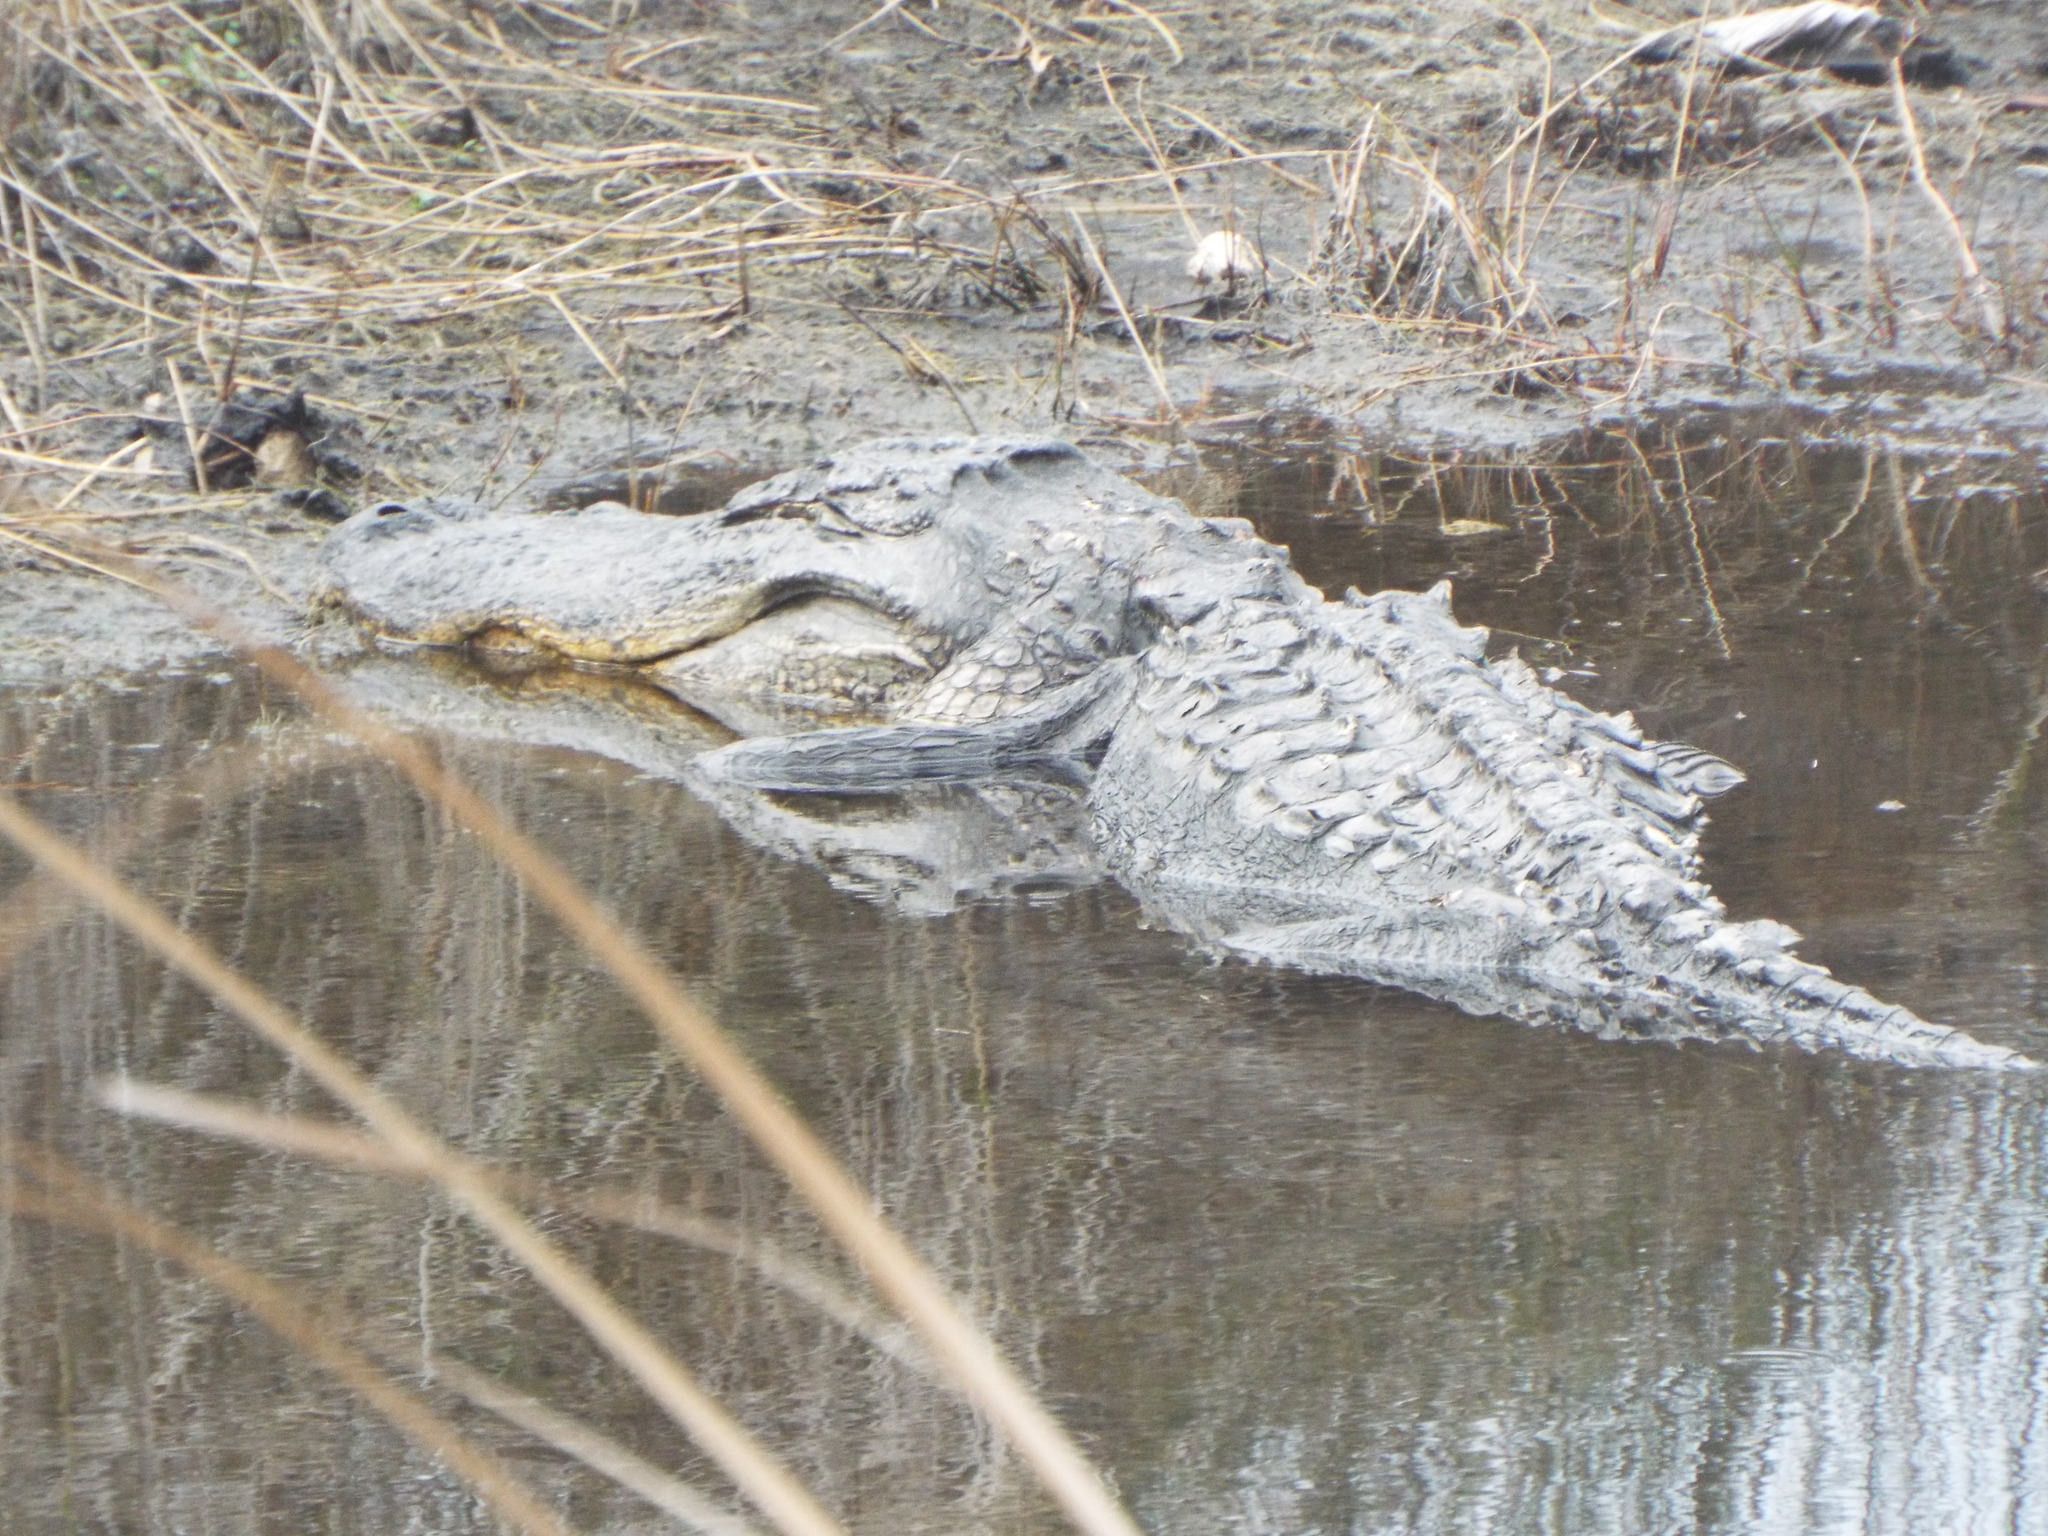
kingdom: Animalia
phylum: Chordata
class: Crocodylia
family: Alligatoridae
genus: Alligator
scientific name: Alligator mississippiensis
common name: American alligator
